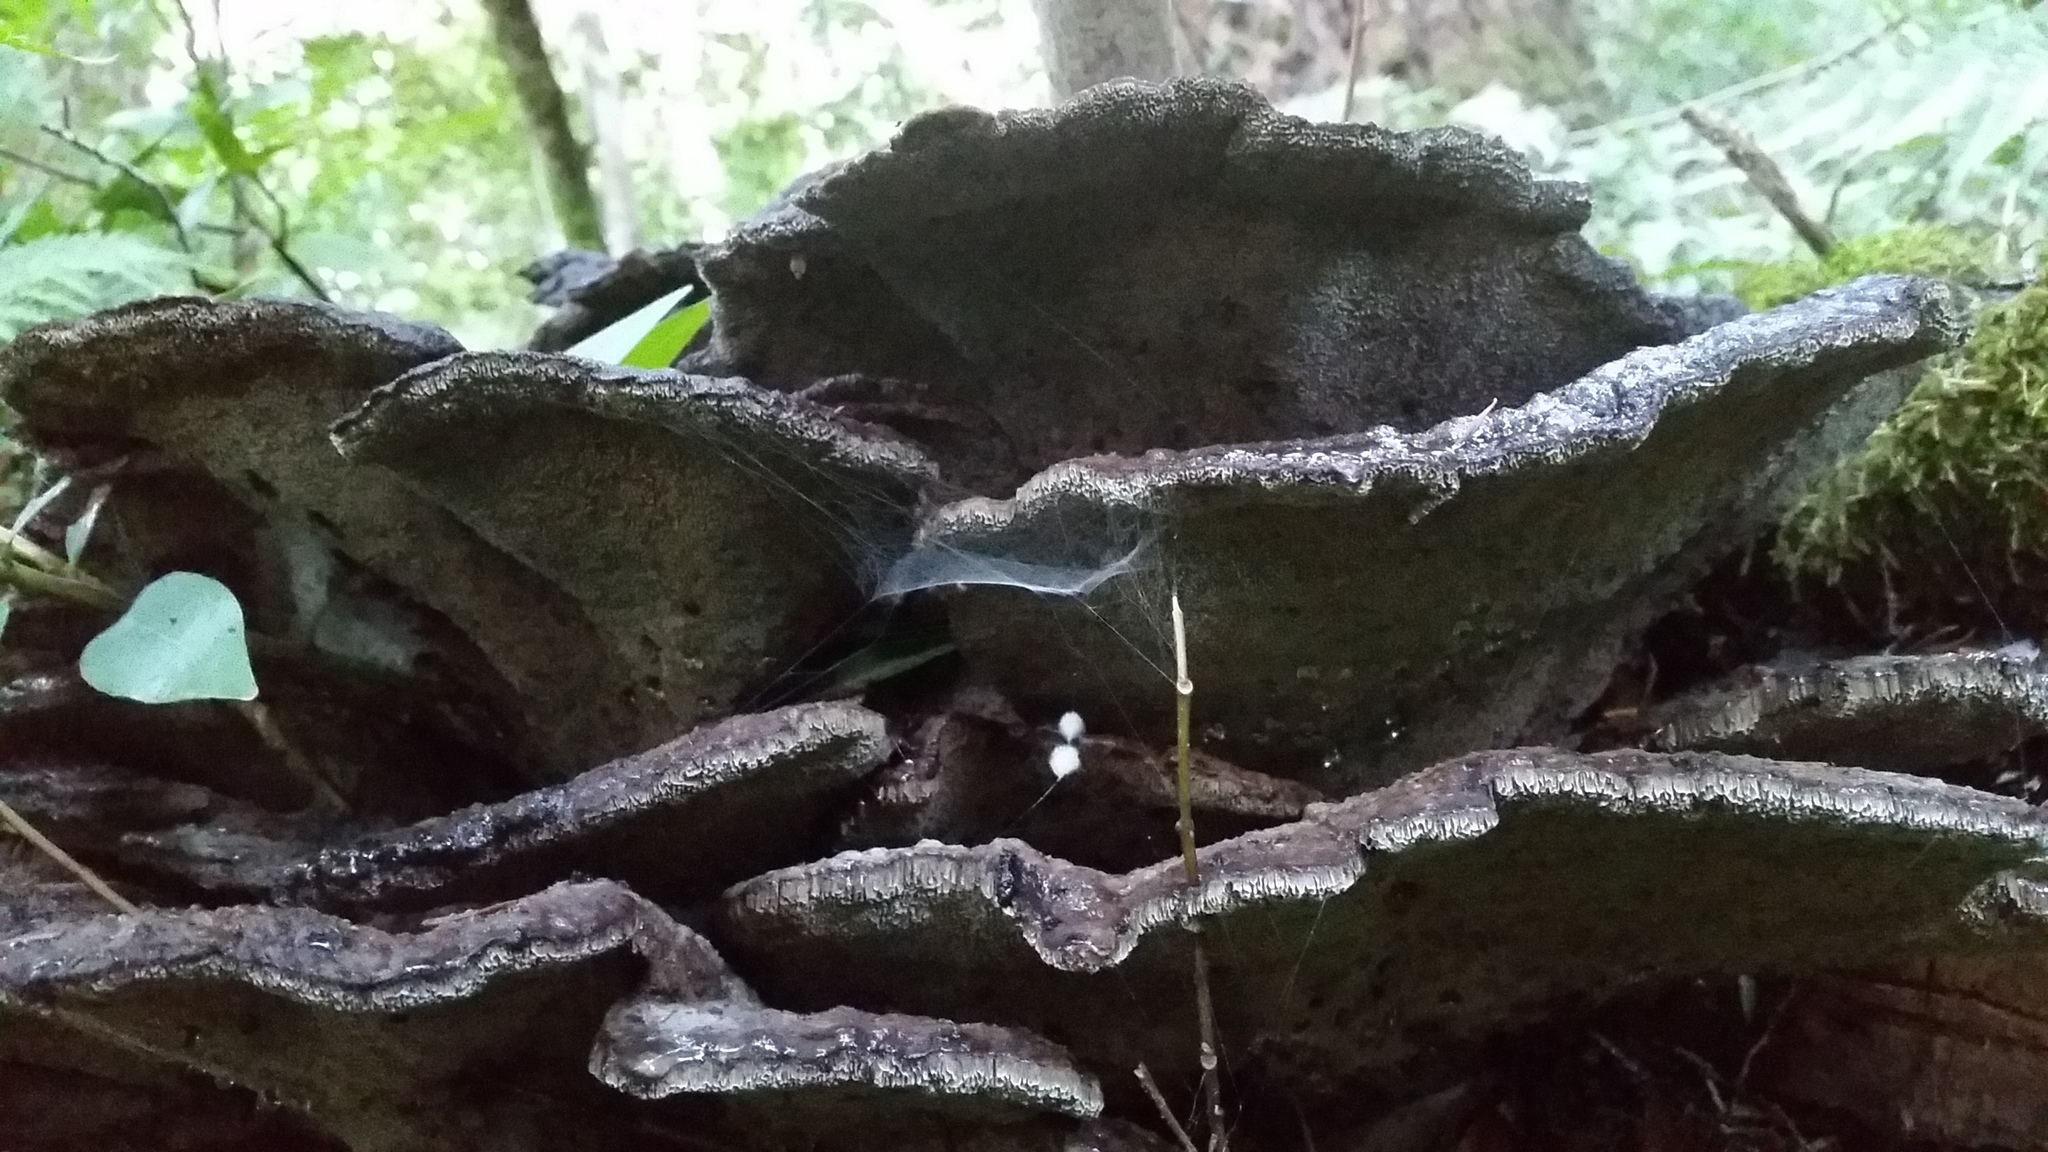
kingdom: Fungi
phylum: Basidiomycota
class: Agaricomycetes
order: Polyporales
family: Laetiporaceae
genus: Phaeolus
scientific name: Phaeolus schweinitzii
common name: Dyer's mazegill
